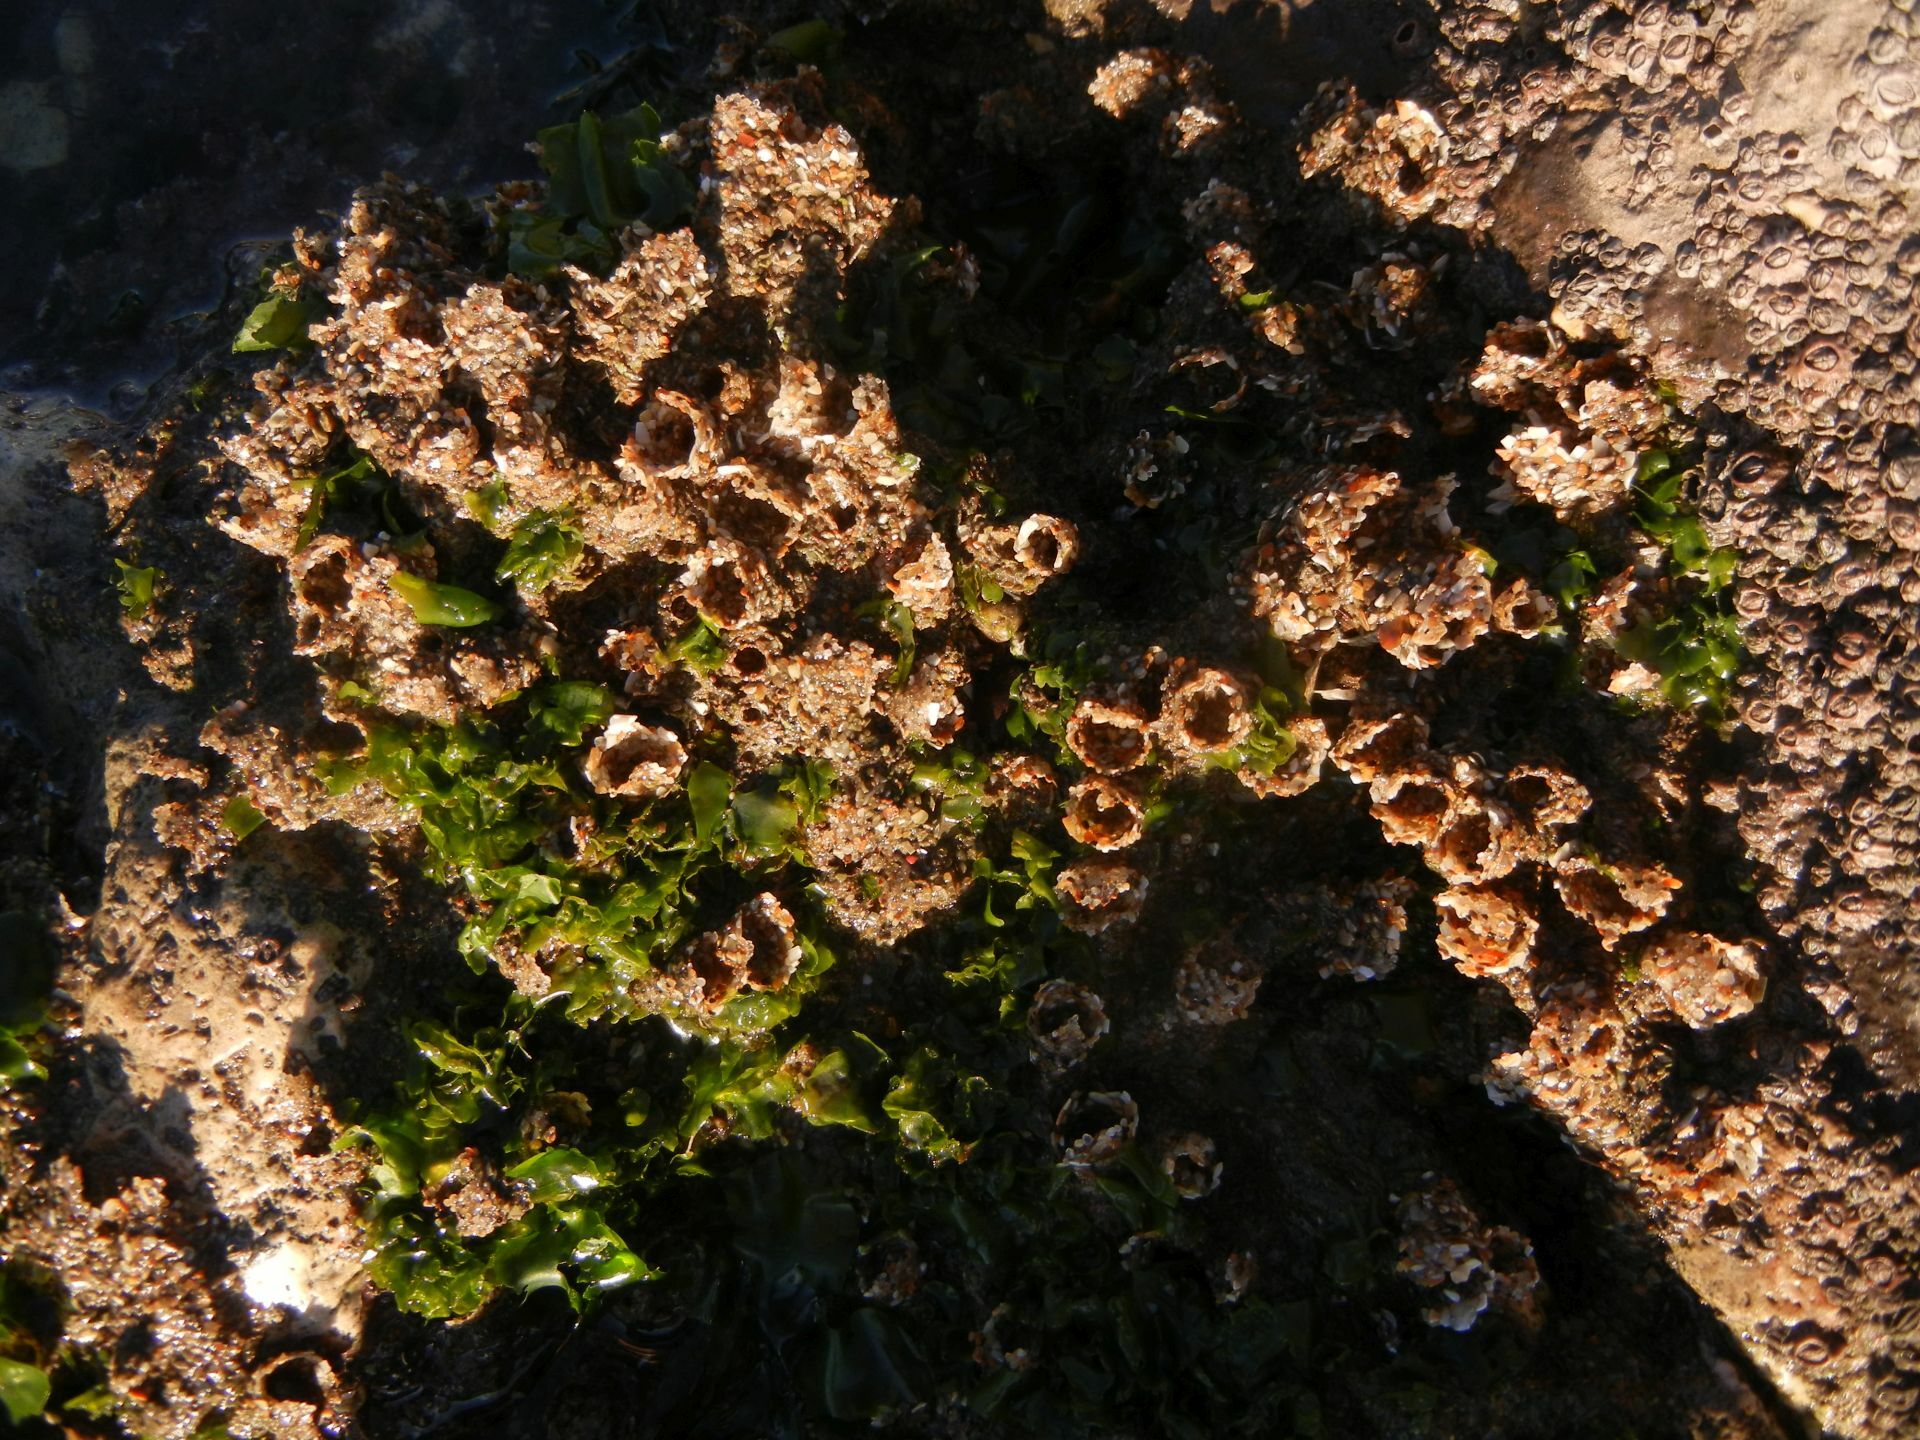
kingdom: Animalia
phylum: Annelida
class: Polychaeta
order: Sabellida
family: Sabellariidae
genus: Sabellaria
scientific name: Sabellaria alveolata
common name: Honeycomb worm
